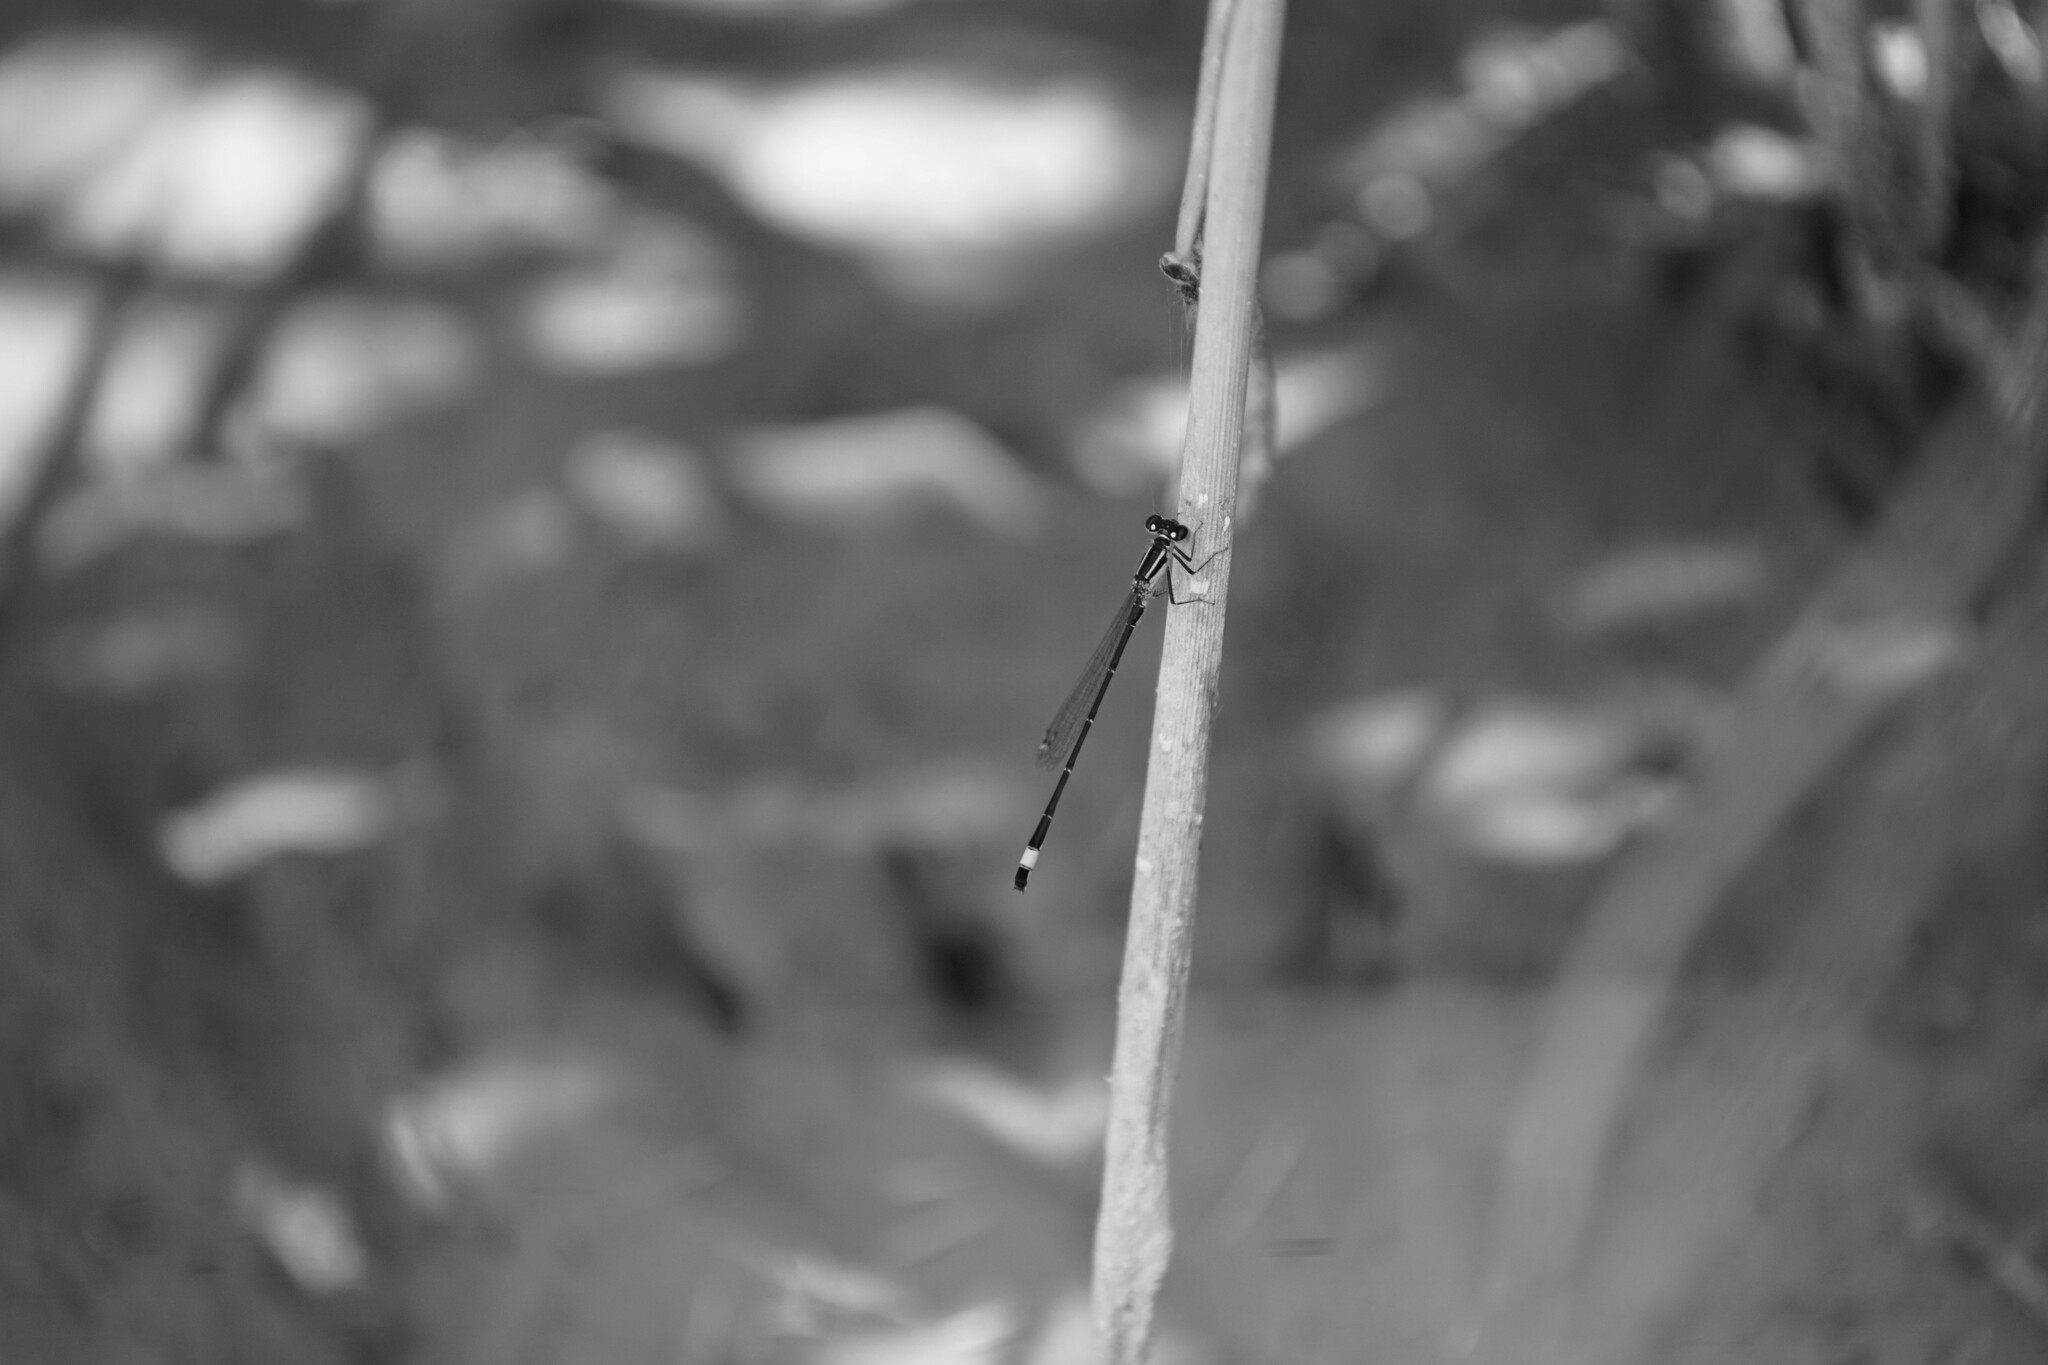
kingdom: Animalia
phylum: Arthropoda
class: Insecta
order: Odonata
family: Coenagrionidae
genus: Ischnura
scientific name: Ischnura elegans
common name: Blue-tailed damselfly
